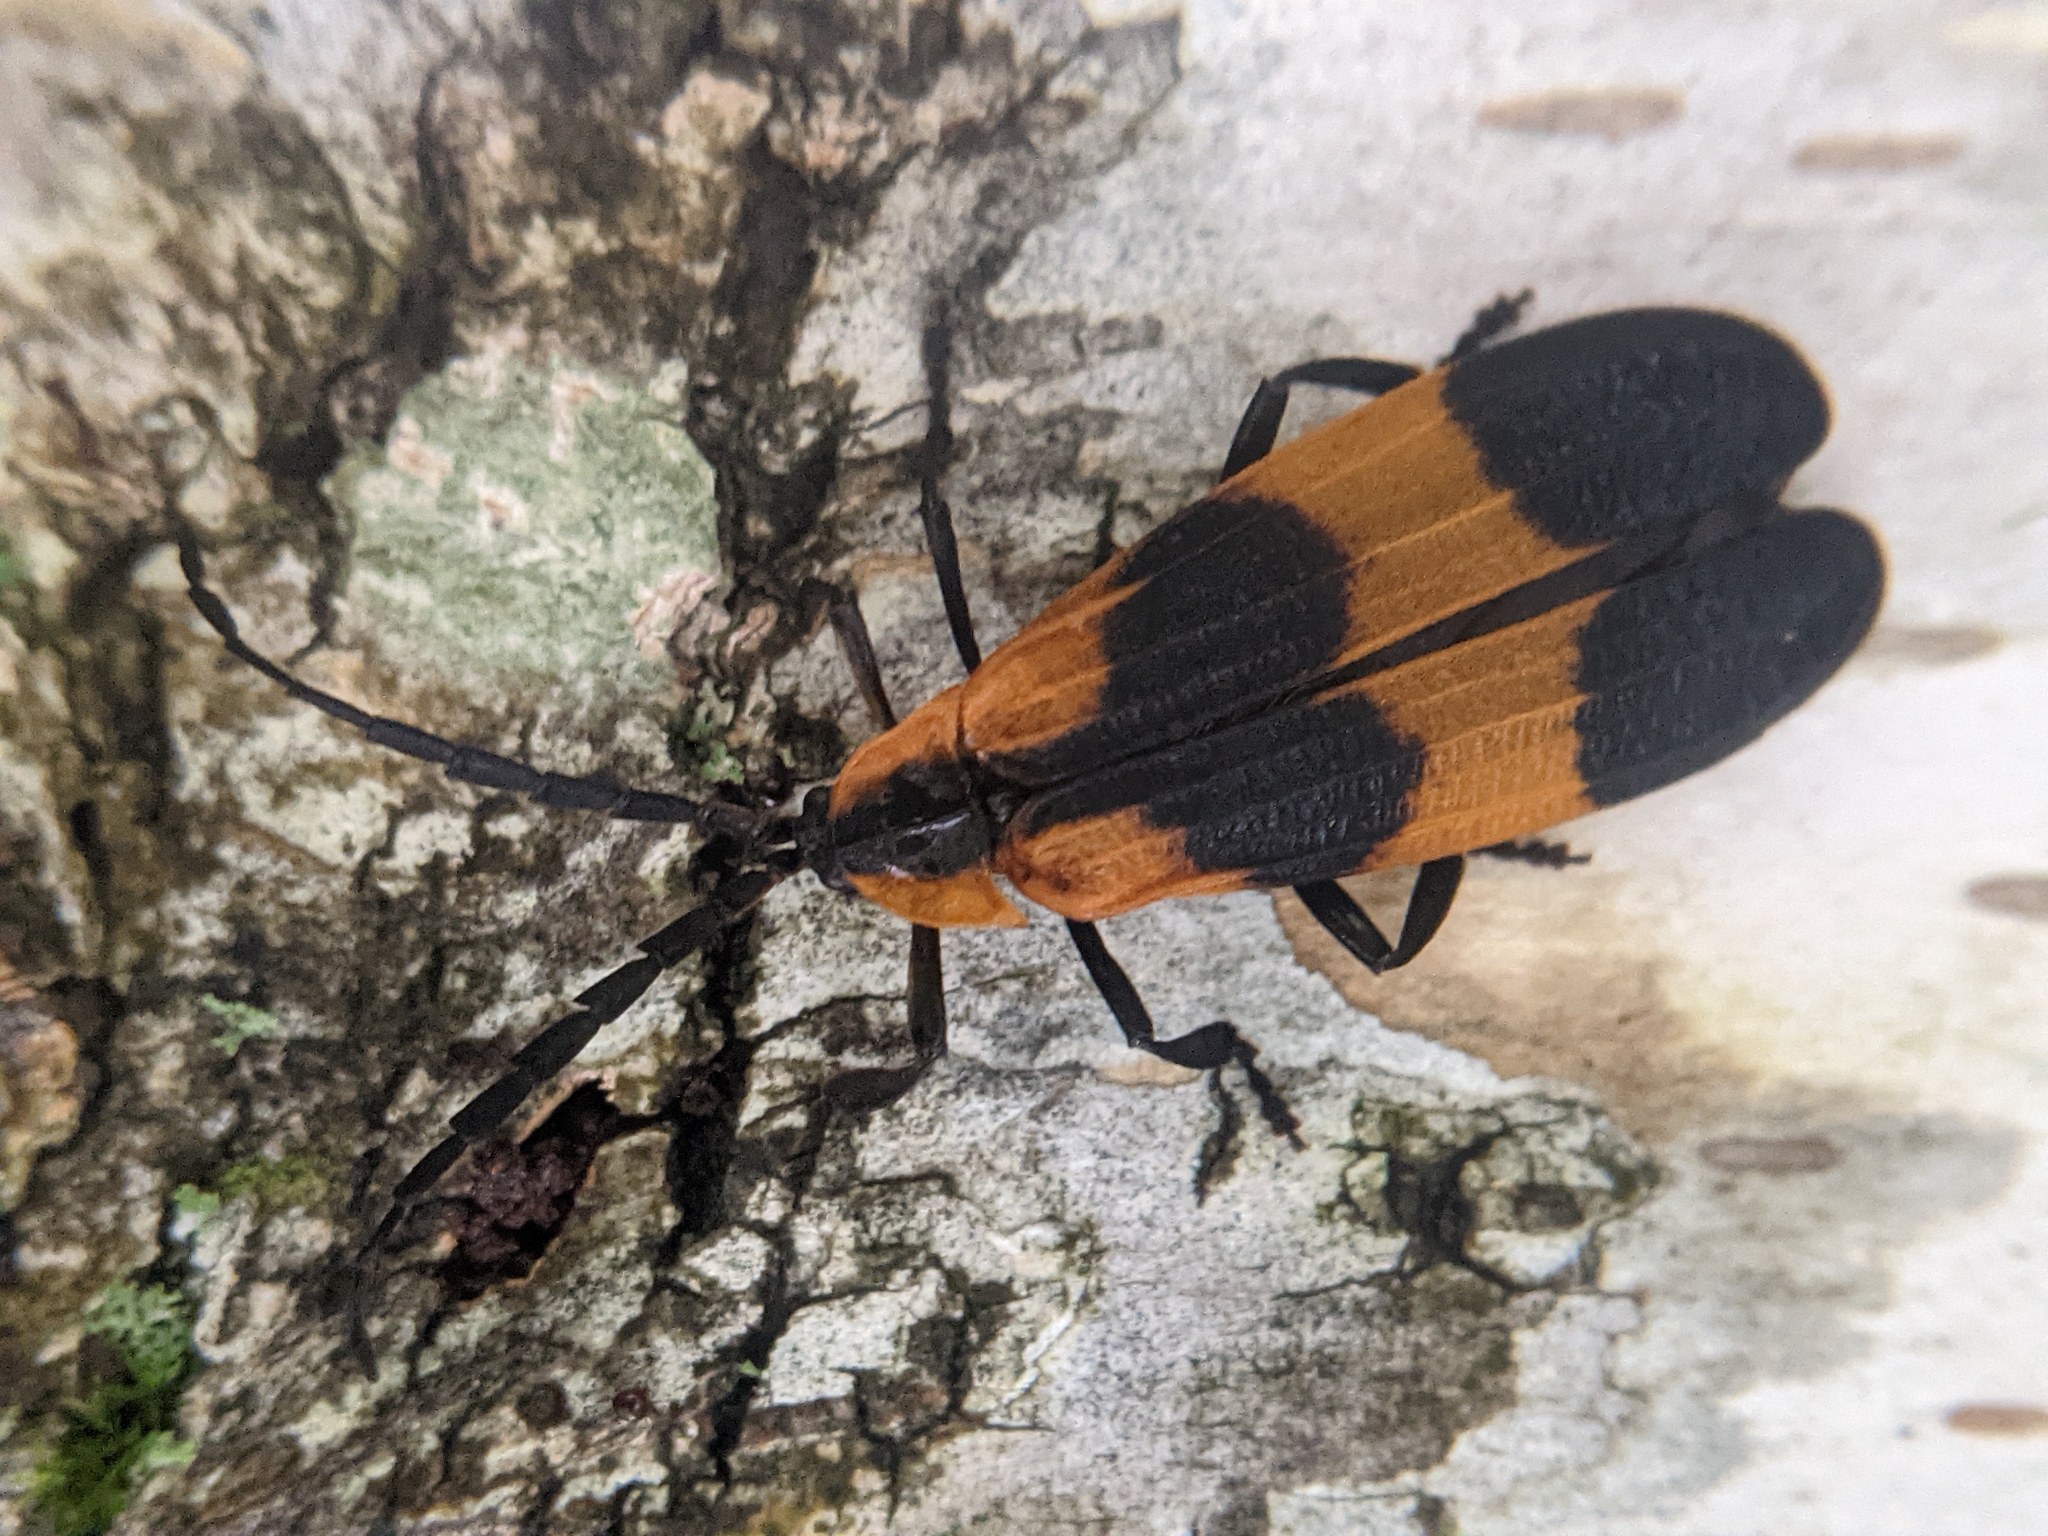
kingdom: Animalia
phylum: Arthropoda
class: Insecta
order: Coleoptera
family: Lycidae
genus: Calopteron
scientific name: Calopteron reticulatum
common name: Banded net-winged beetle
